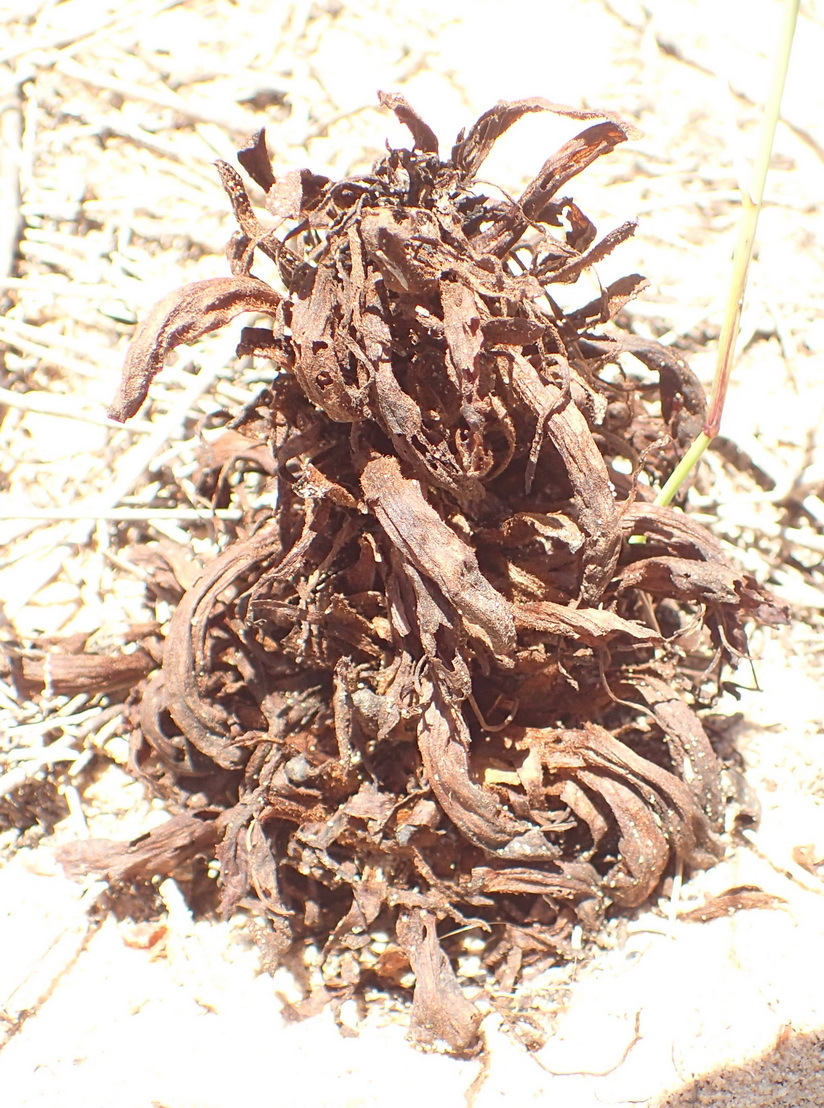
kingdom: Plantae
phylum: Tracheophyta
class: Magnoliopsida
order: Lamiales
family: Orobanchaceae
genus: Hyobanche
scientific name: Hyobanche robusta
